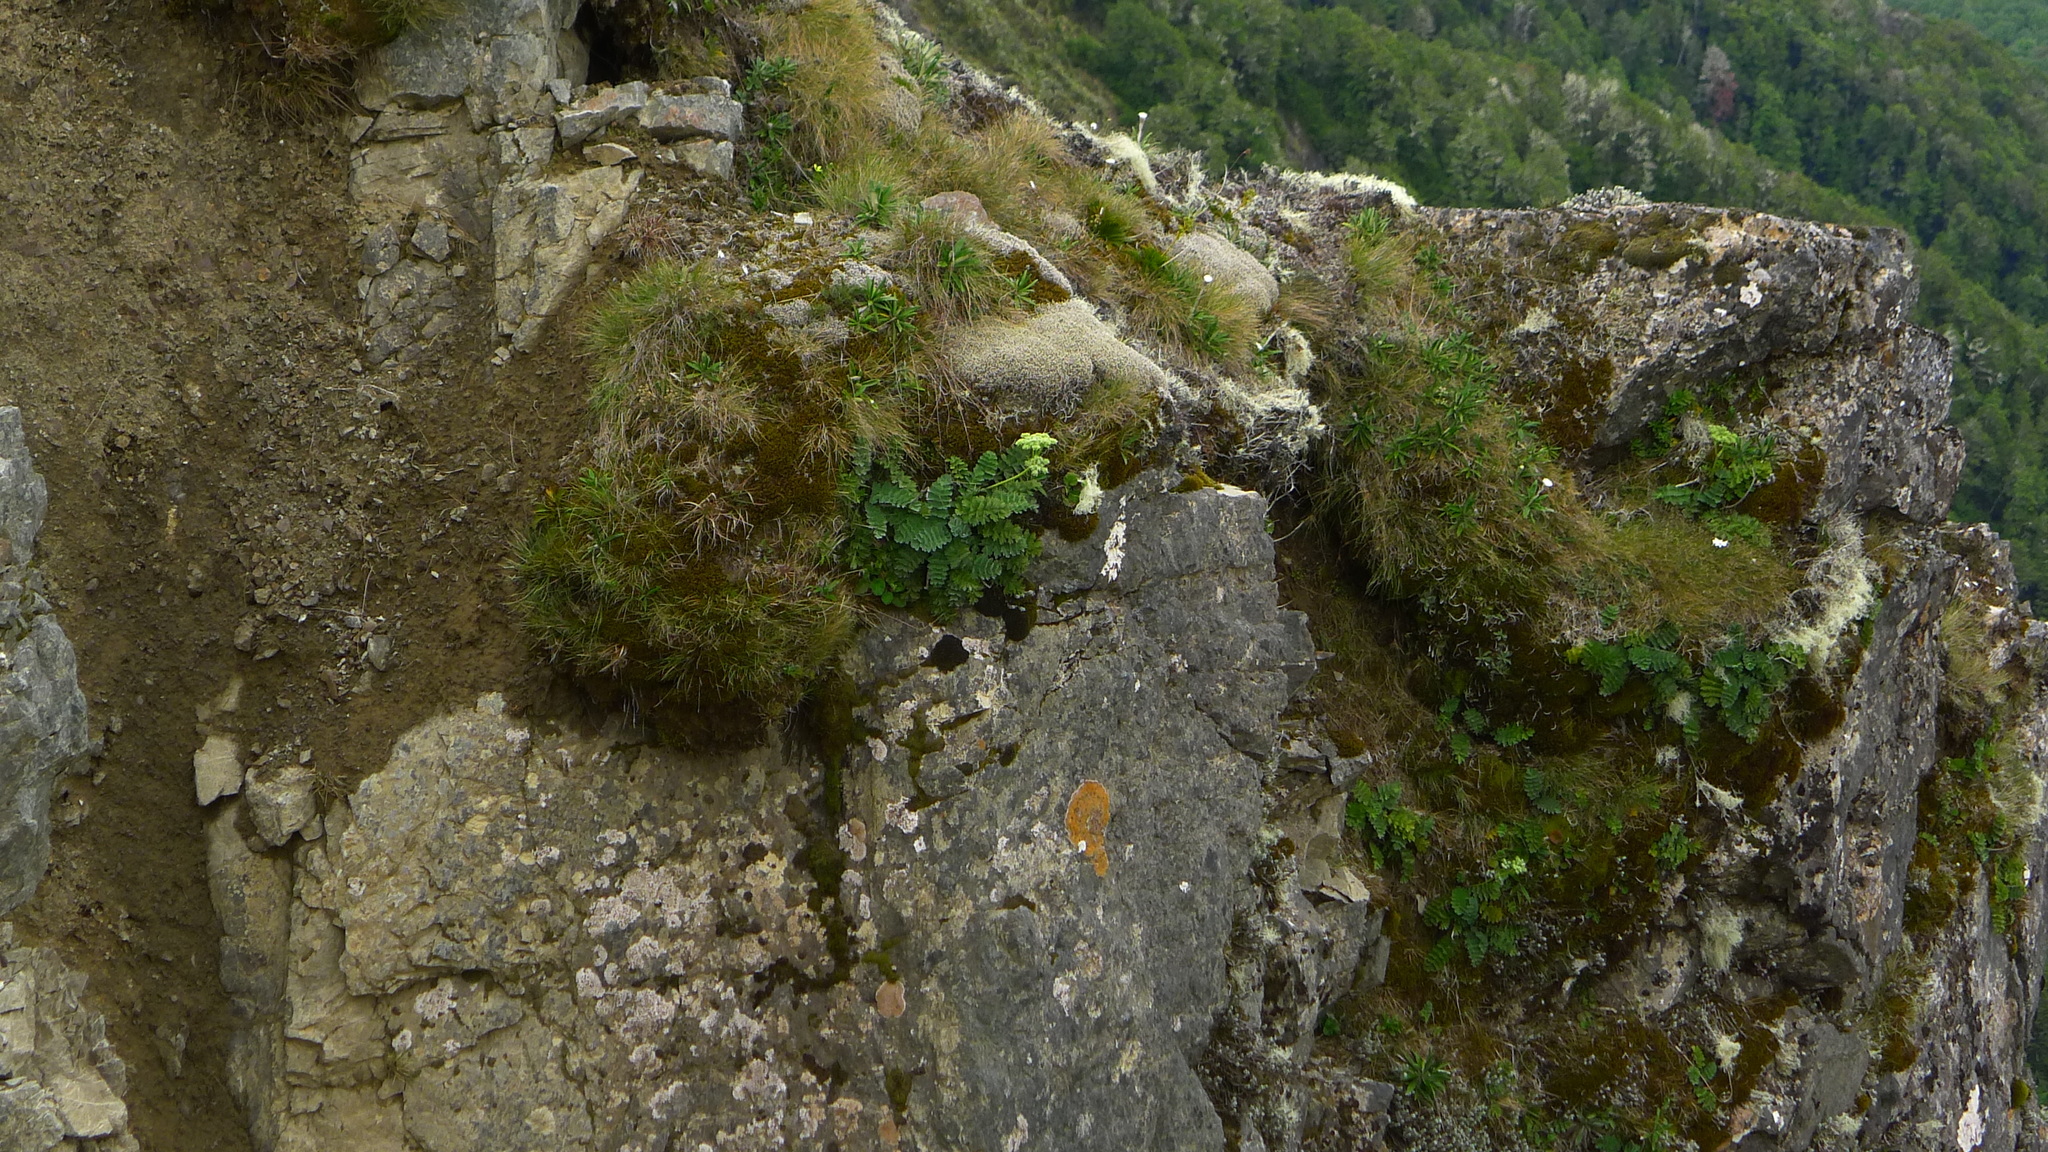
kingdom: Plantae
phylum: Tracheophyta
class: Magnoliopsida
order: Apiales
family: Apiaceae
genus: Anisotome
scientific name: Anisotome pilifera
